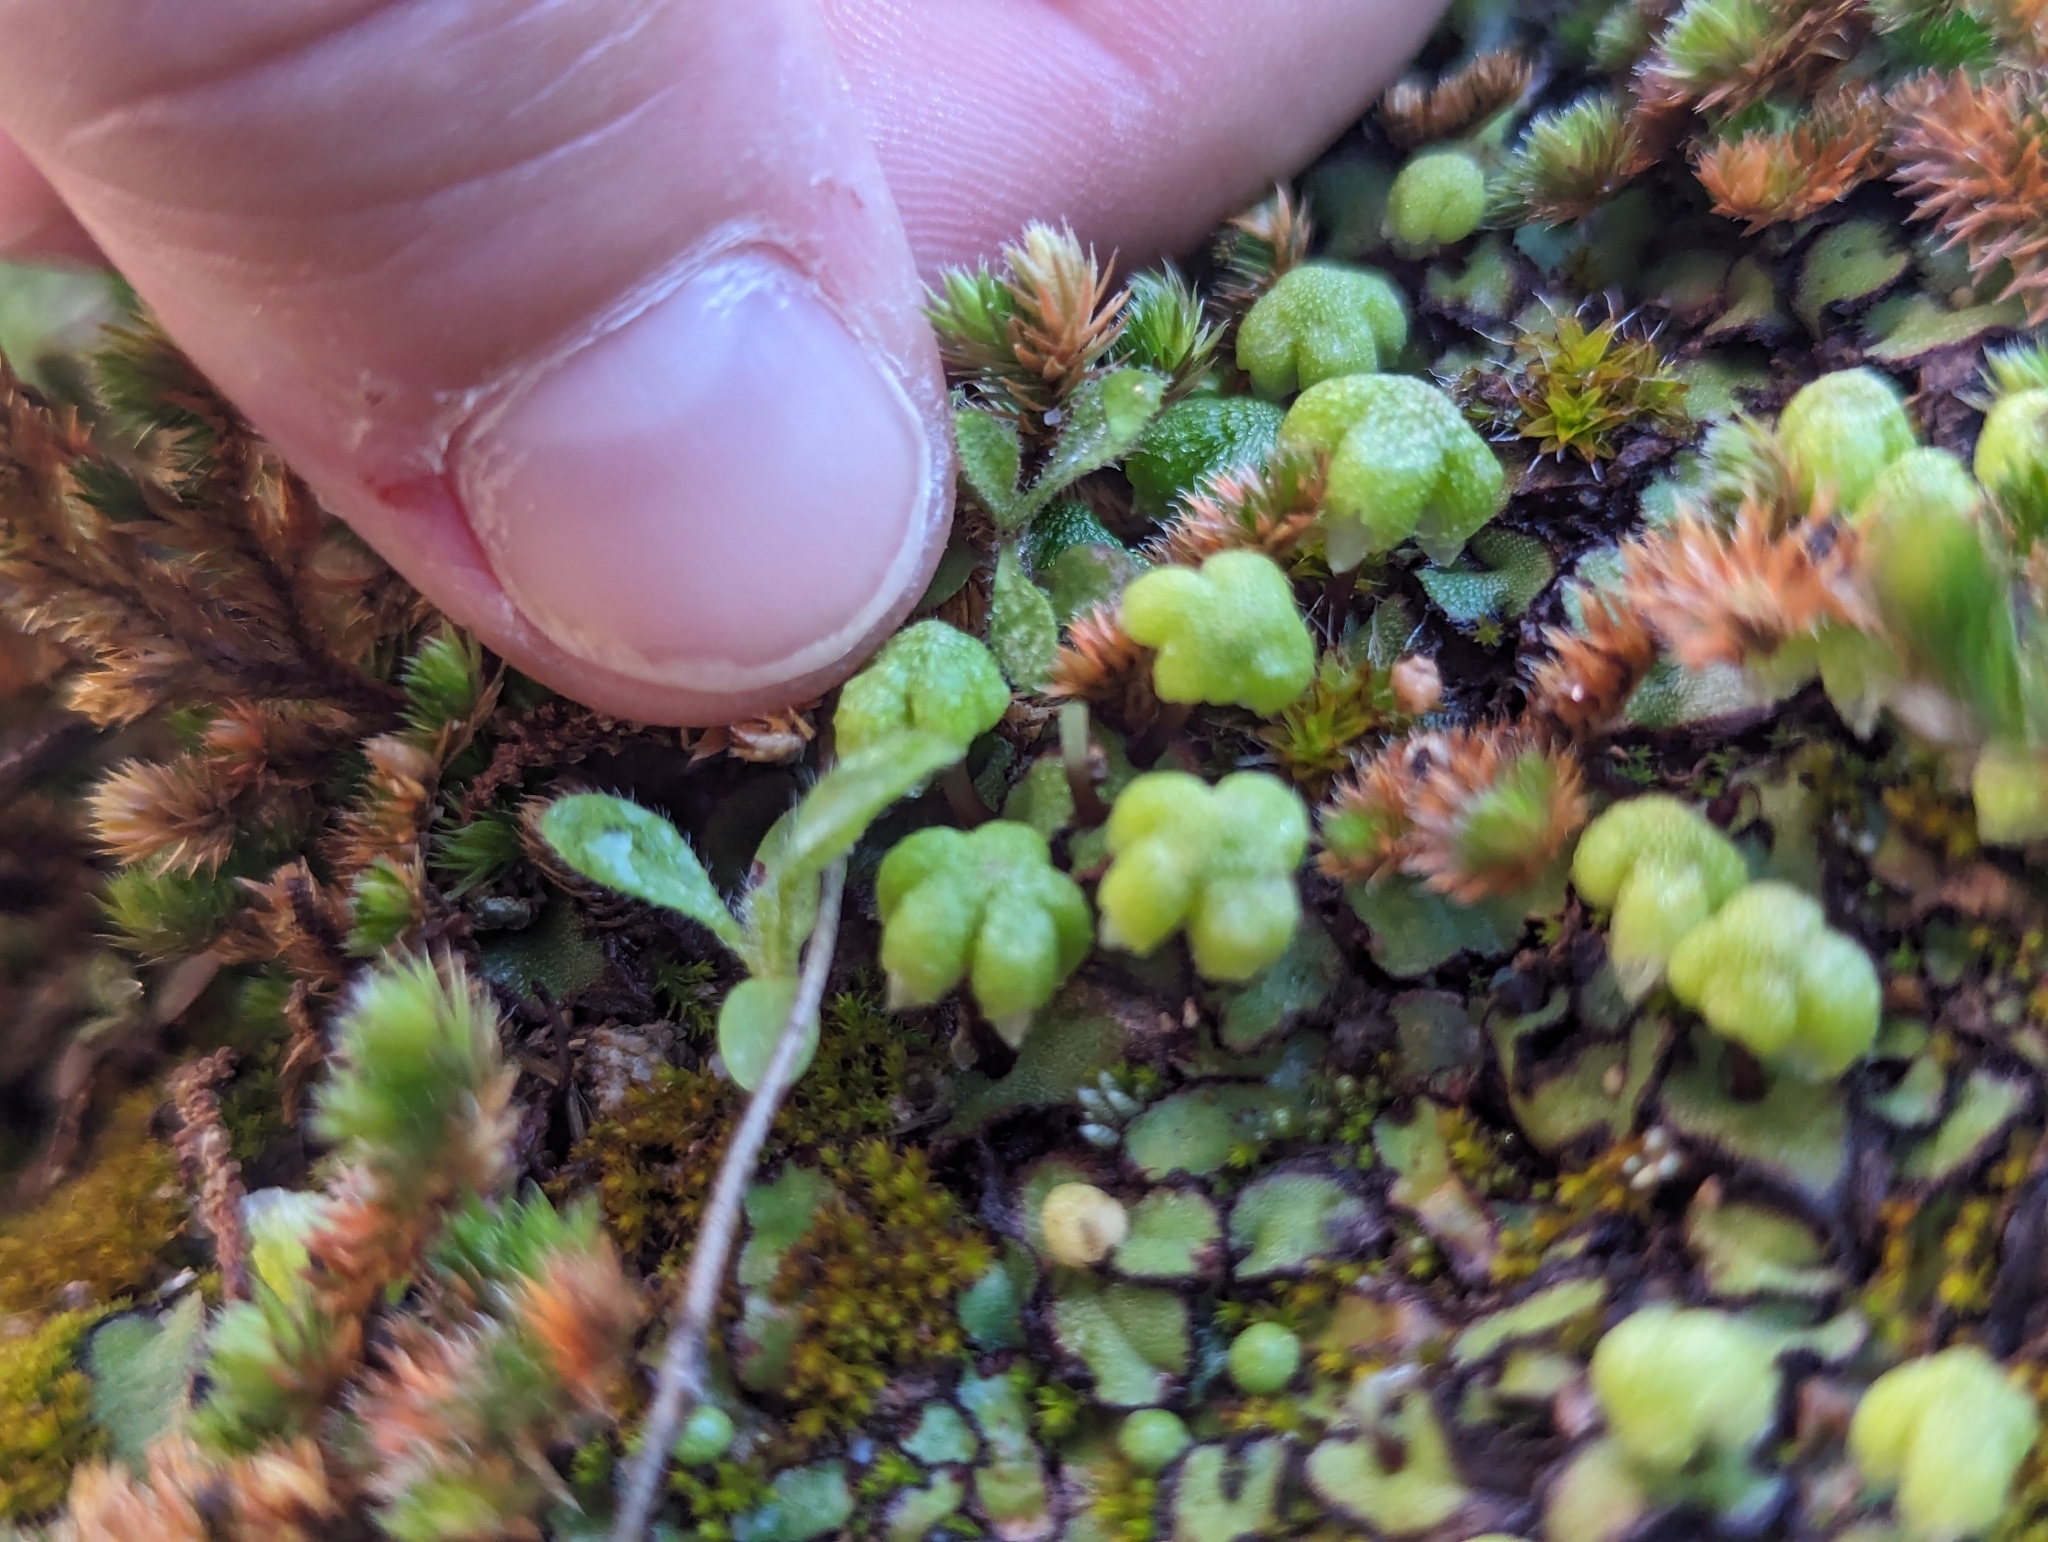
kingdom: Plantae
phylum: Marchantiophyta
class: Marchantiopsida
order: Marchantiales
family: Aytoniaceae
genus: Asterella
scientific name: Asterella californica
